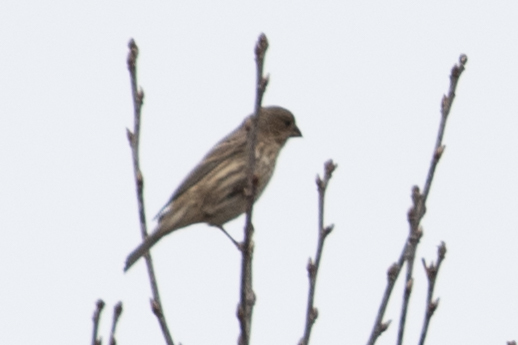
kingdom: Animalia
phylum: Chordata
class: Aves
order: Passeriformes
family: Fringillidae
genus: Haemorhous
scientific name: Haemorhous mexicanus
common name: House finch
